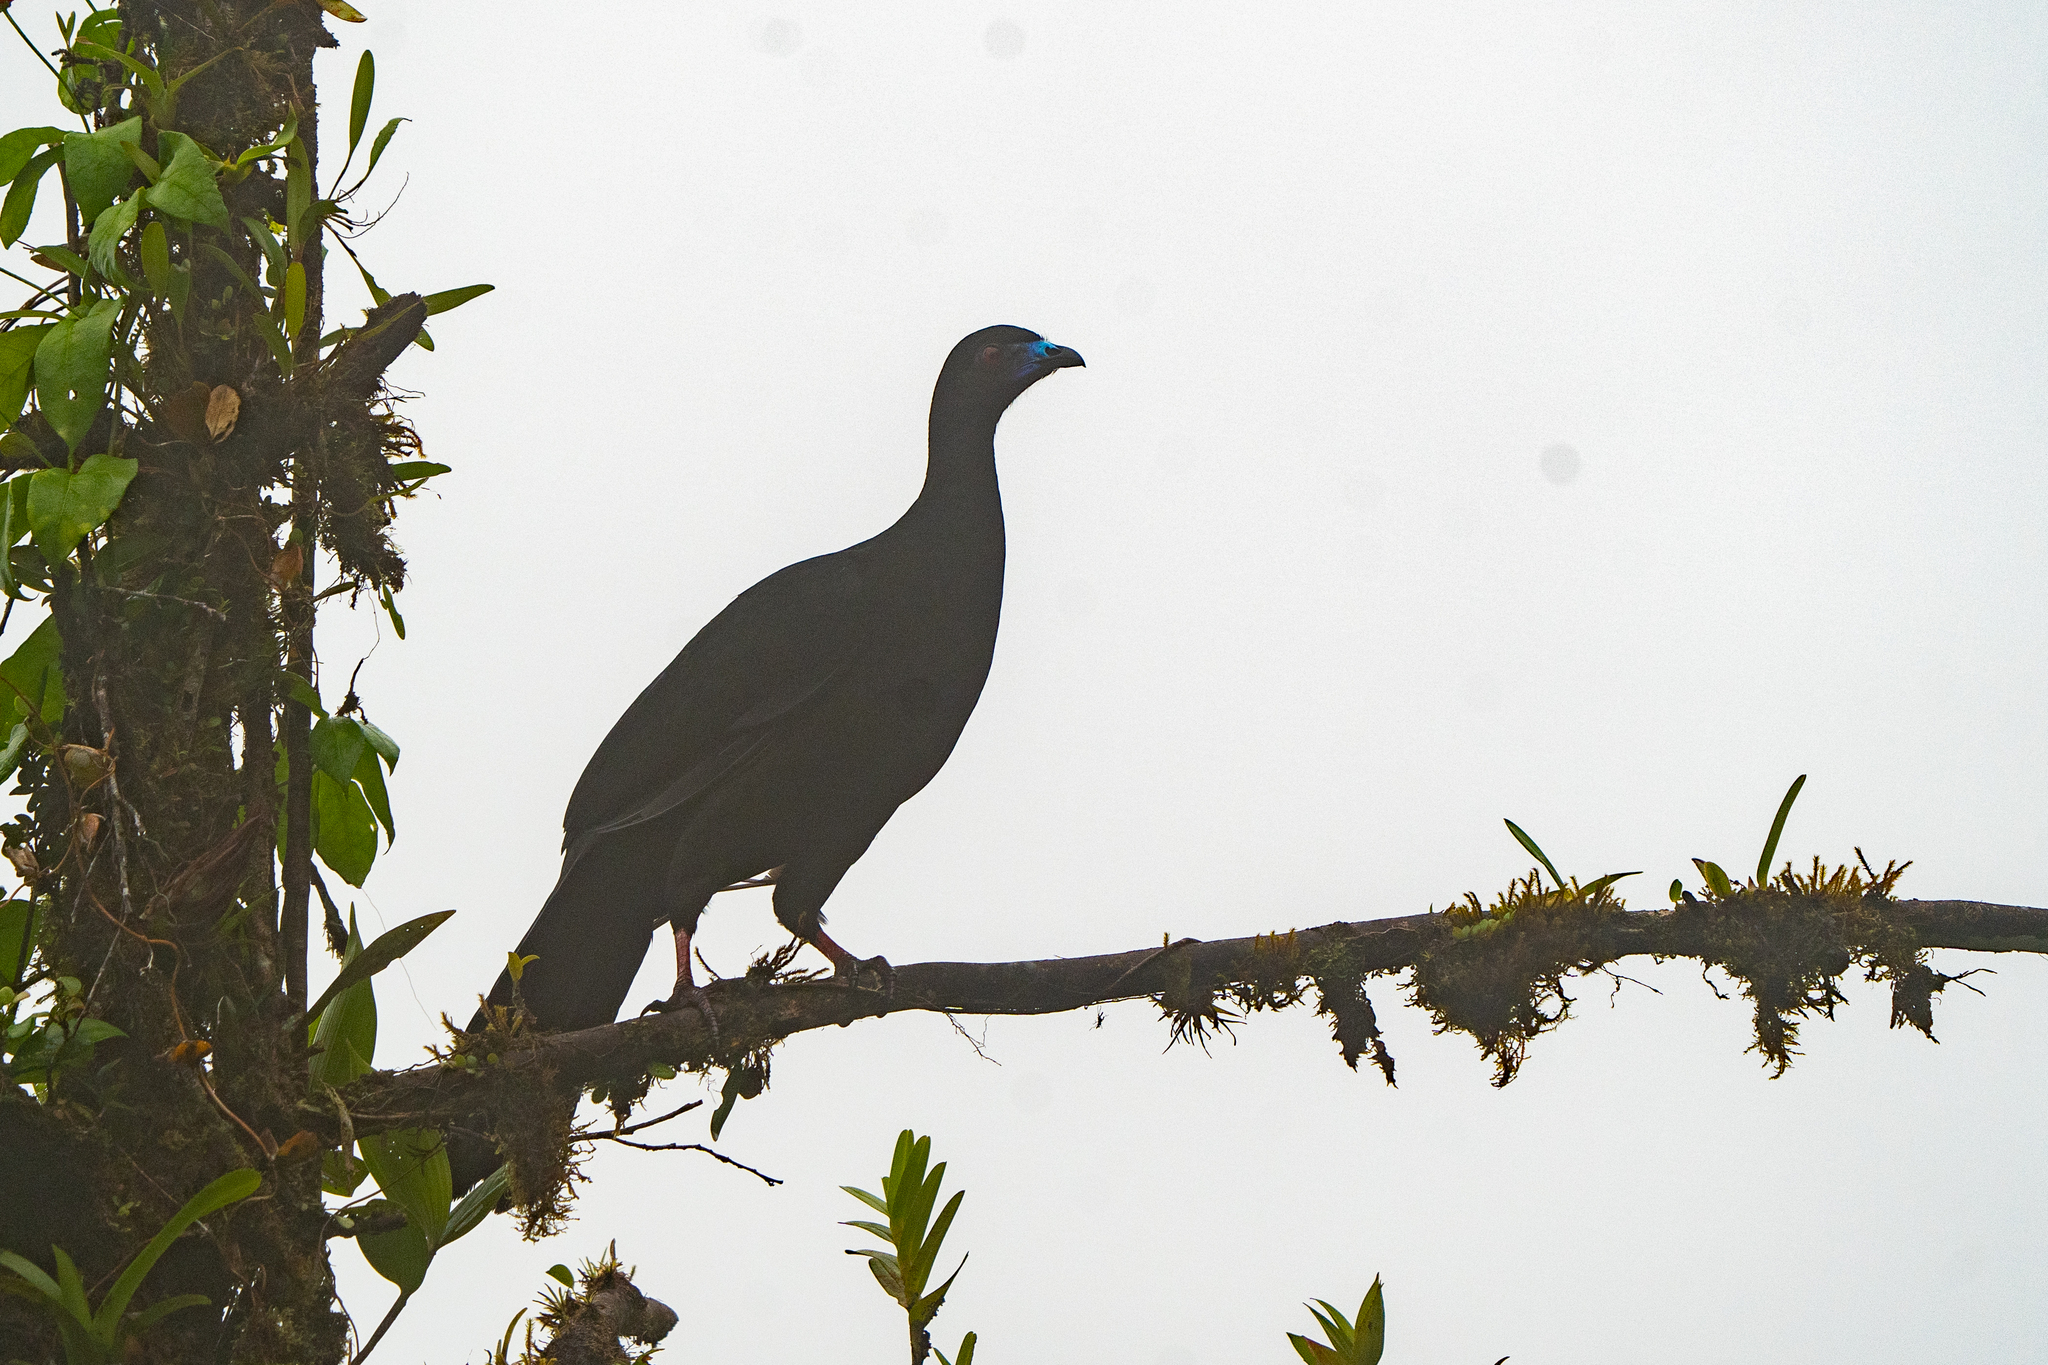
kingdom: Animalia
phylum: Chordata
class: Aves
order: Galliformes
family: Cracidae
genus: Chamaepetes
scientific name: Chamaepetes unicolor
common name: Black guan
